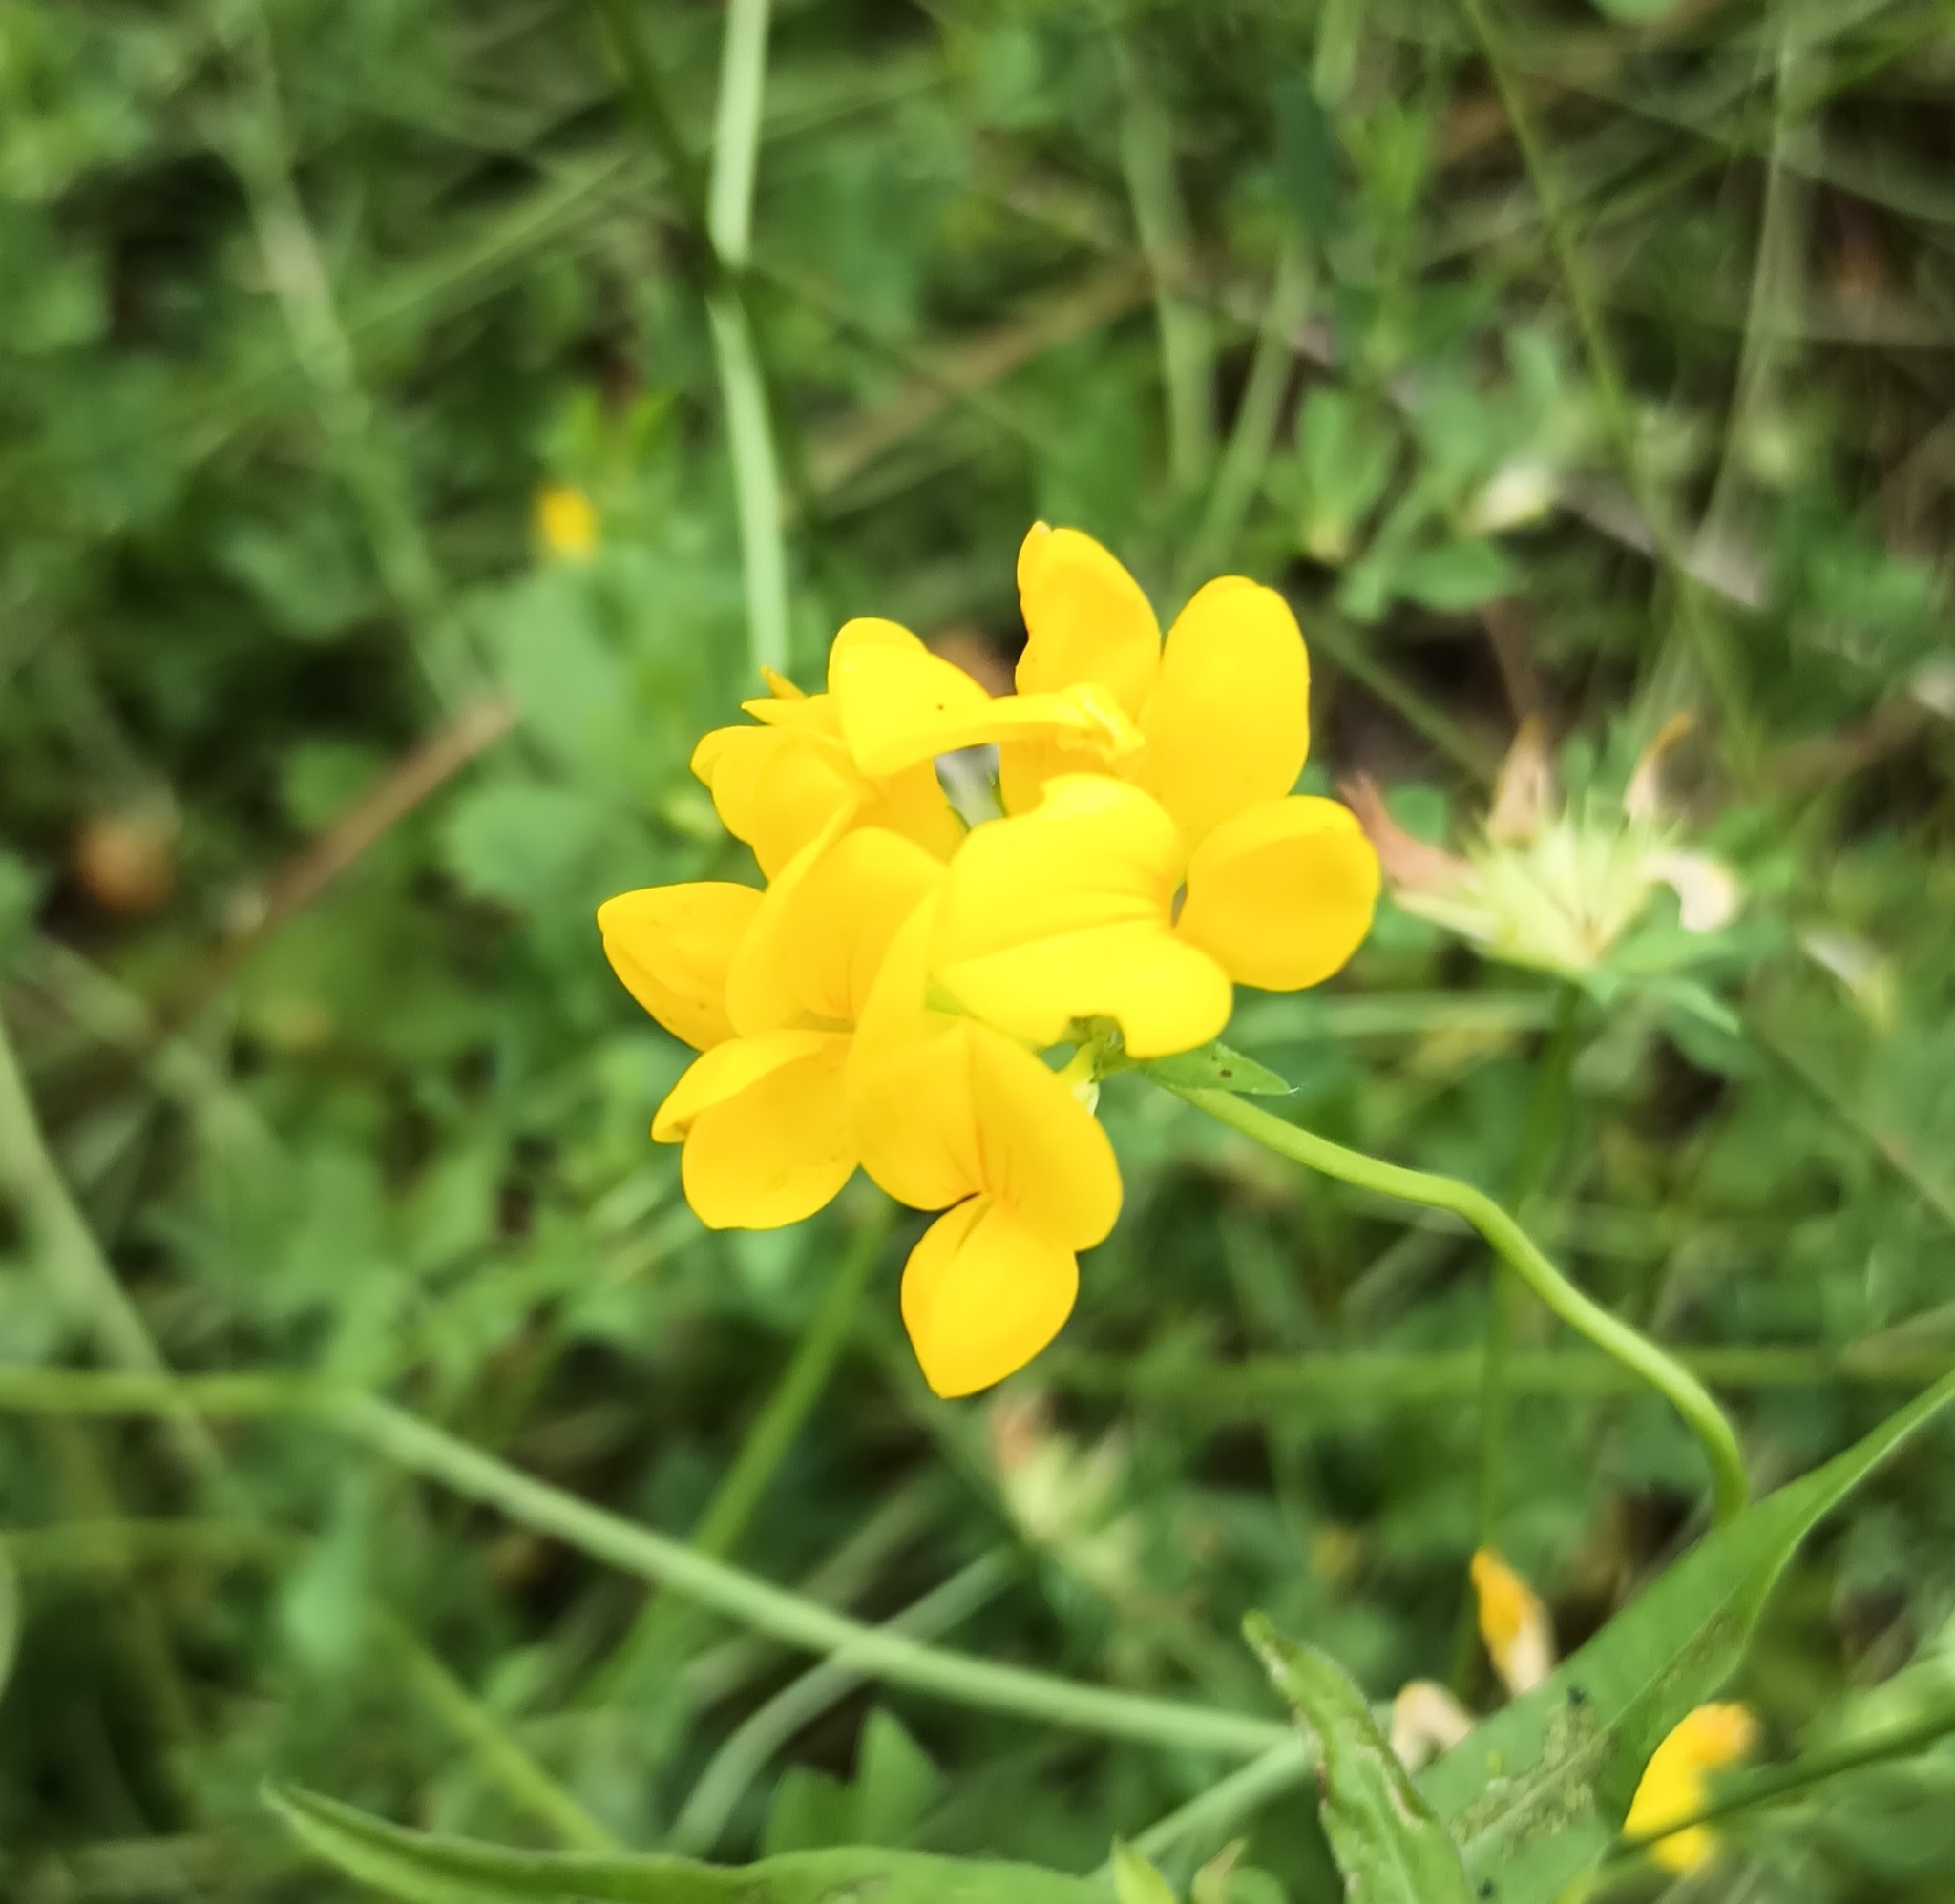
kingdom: Plantae
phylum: Tracheophyta
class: Magnoliopsida
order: Fabales
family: Fabaceae
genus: Lotus
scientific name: Lotus corniculatus
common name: Common bird's-foot-trefoil
